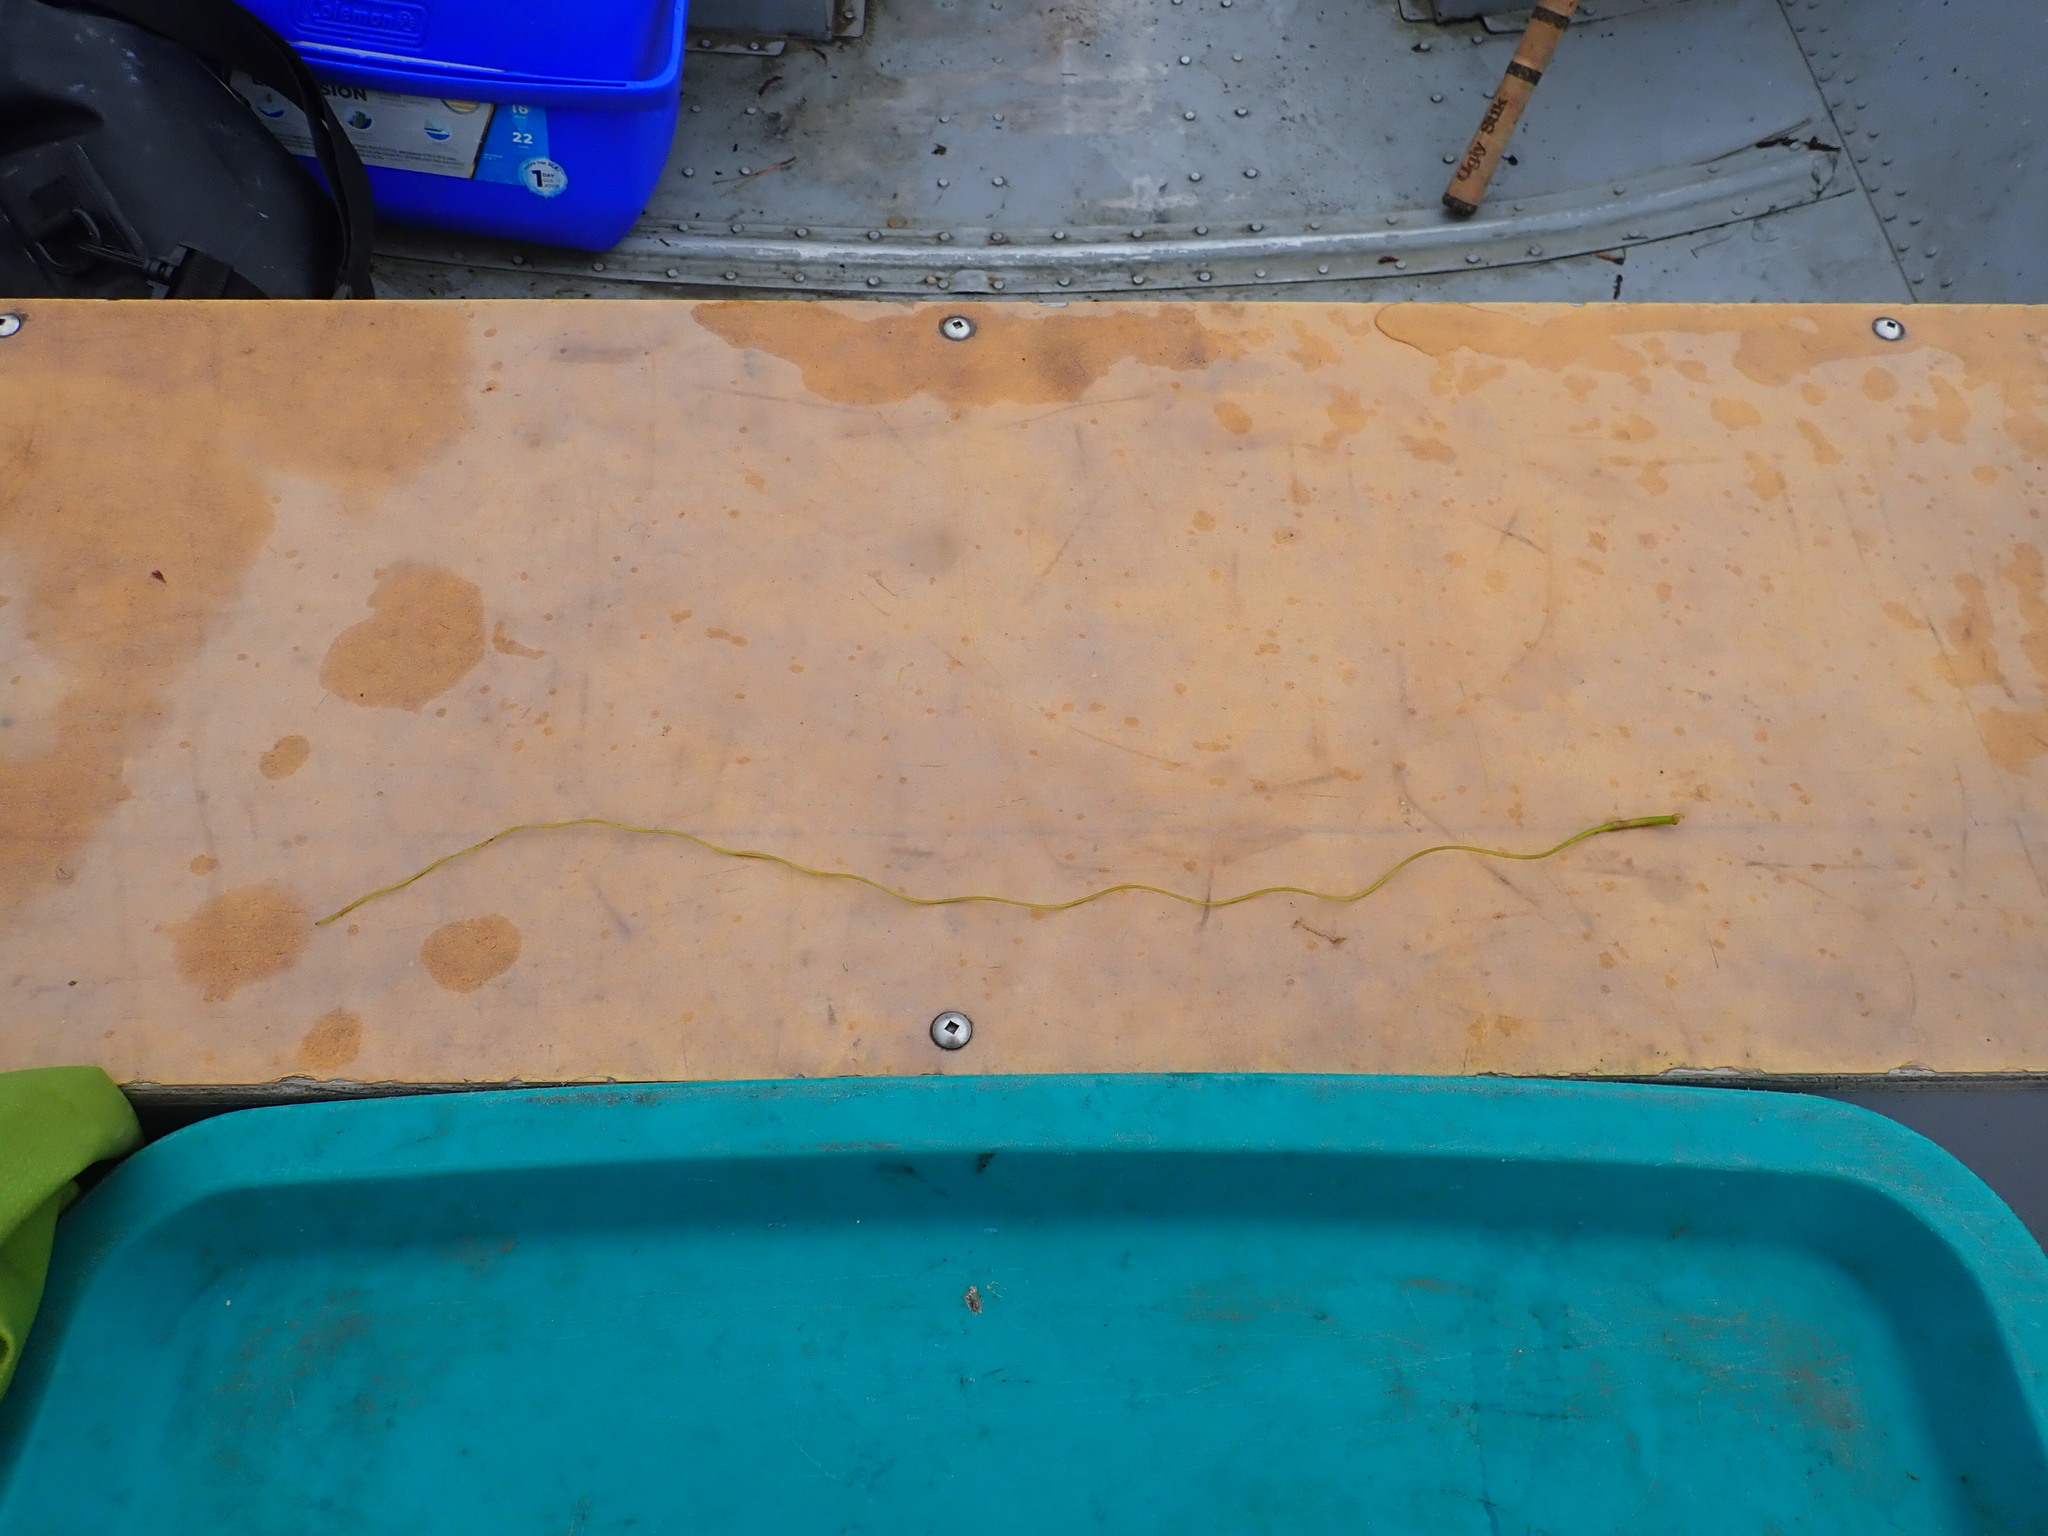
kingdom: Plantae
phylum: Tracheophyta
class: Liliopsida
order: Alismatales
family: Hydrocharitaceae
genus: Vallisneria
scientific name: Vallisneria americana
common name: American eelgrass
